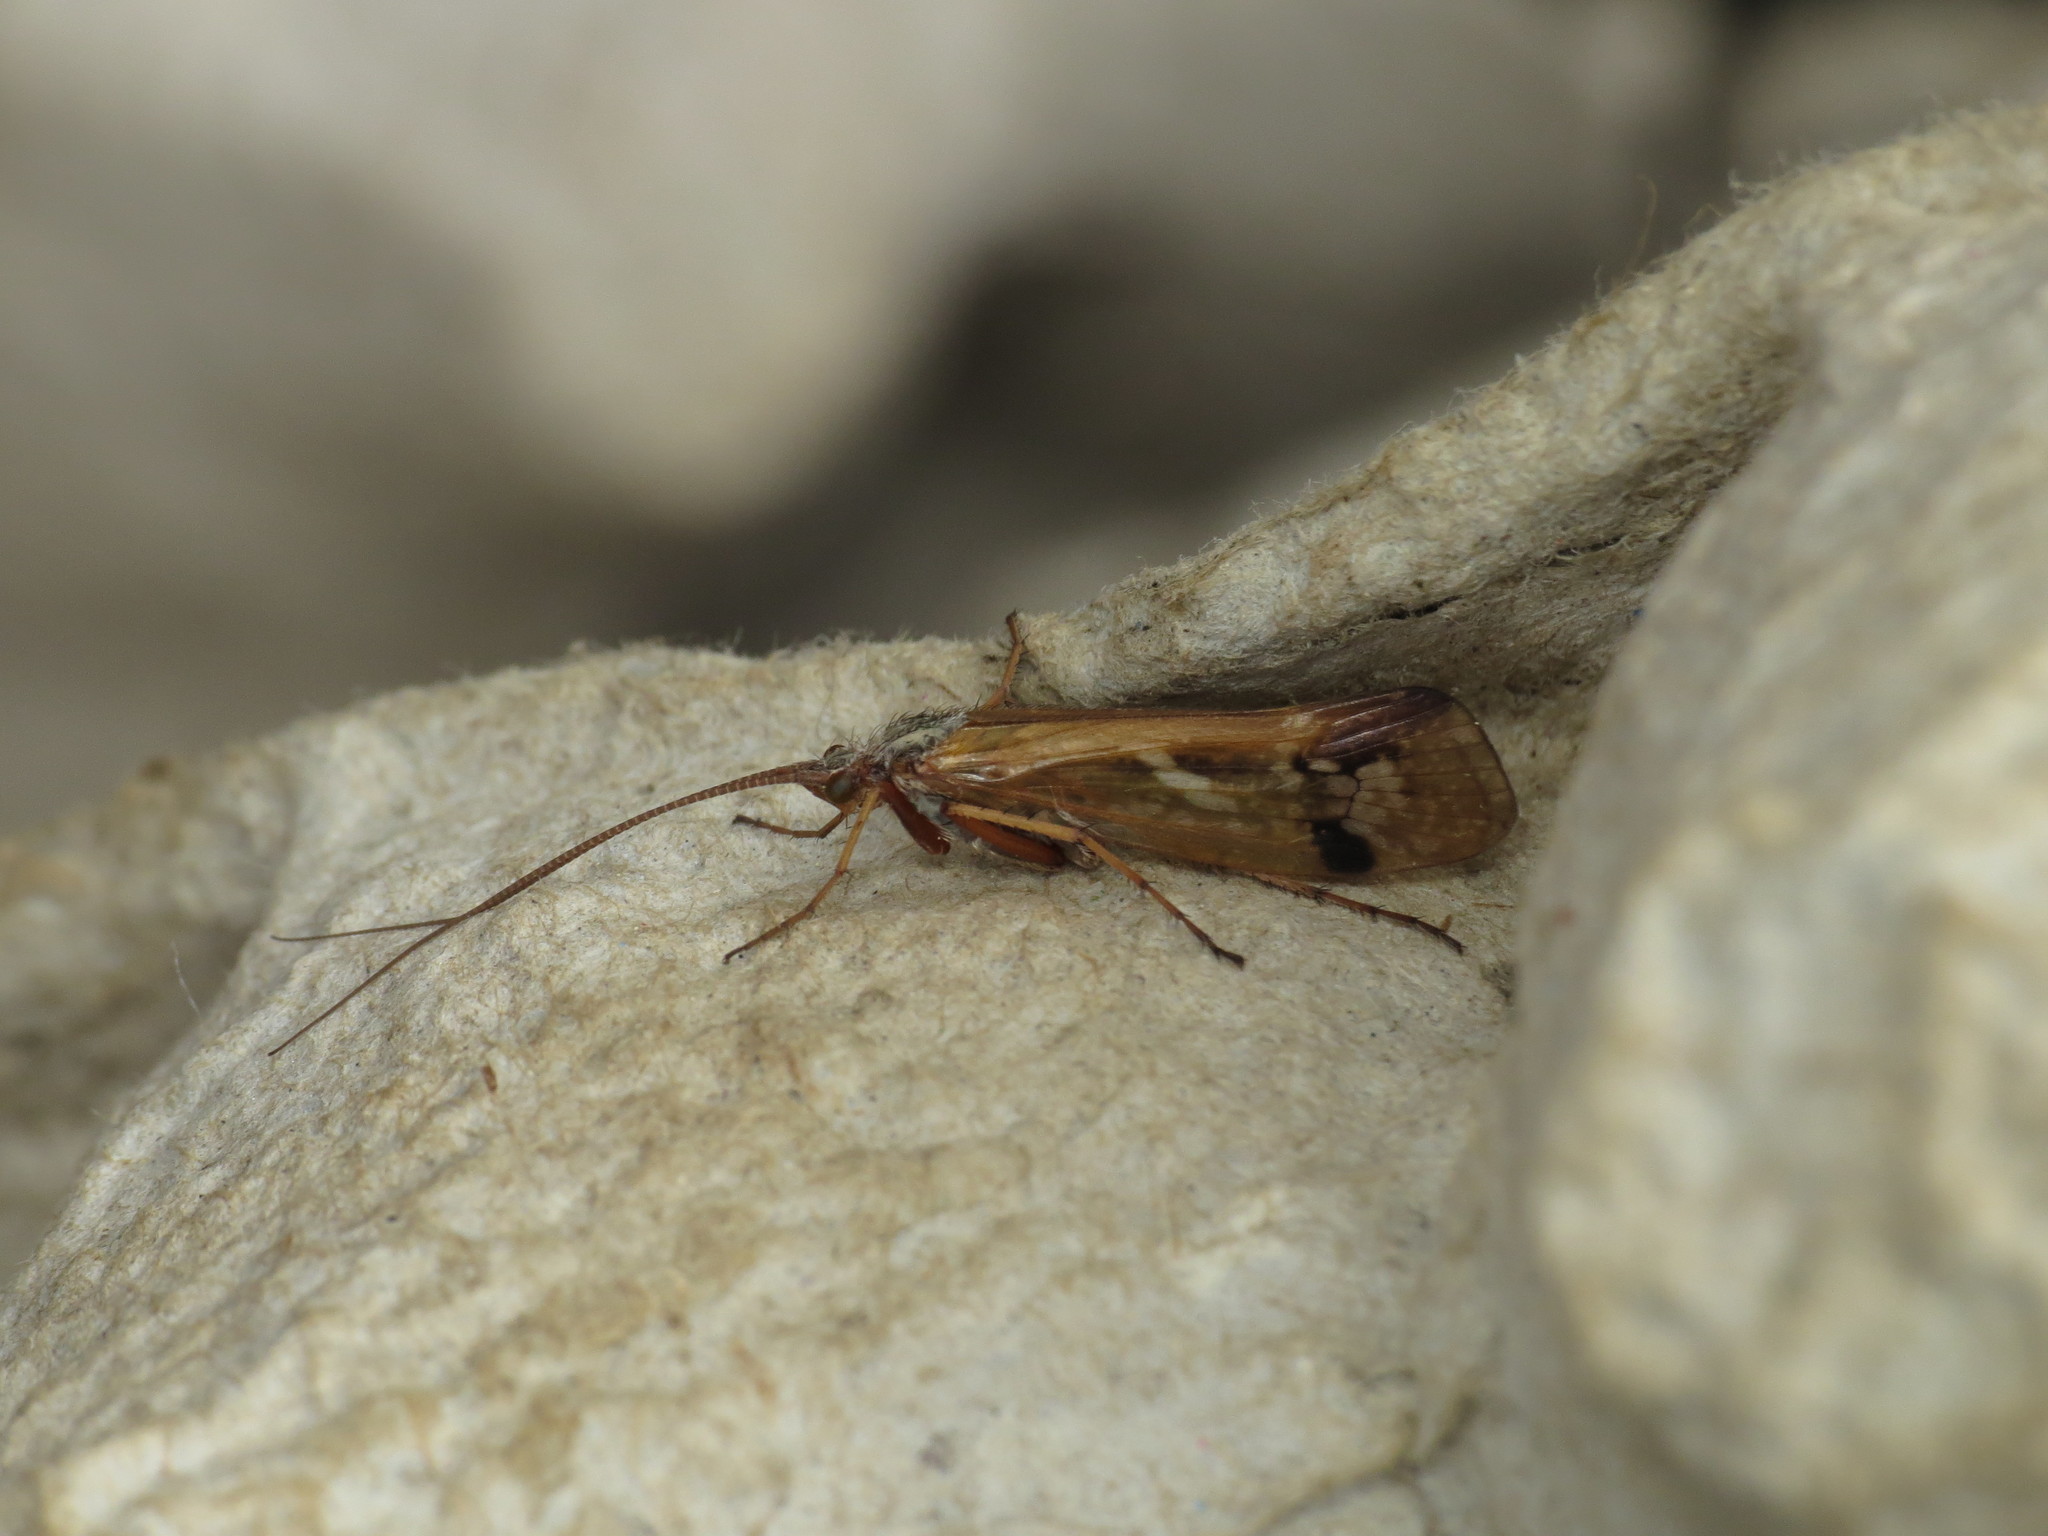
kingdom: Animalia
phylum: Arthropoda
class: Insecta
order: Trichoptera
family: Limnephilidae
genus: Limnephilus
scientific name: Limnephilus binotatus
